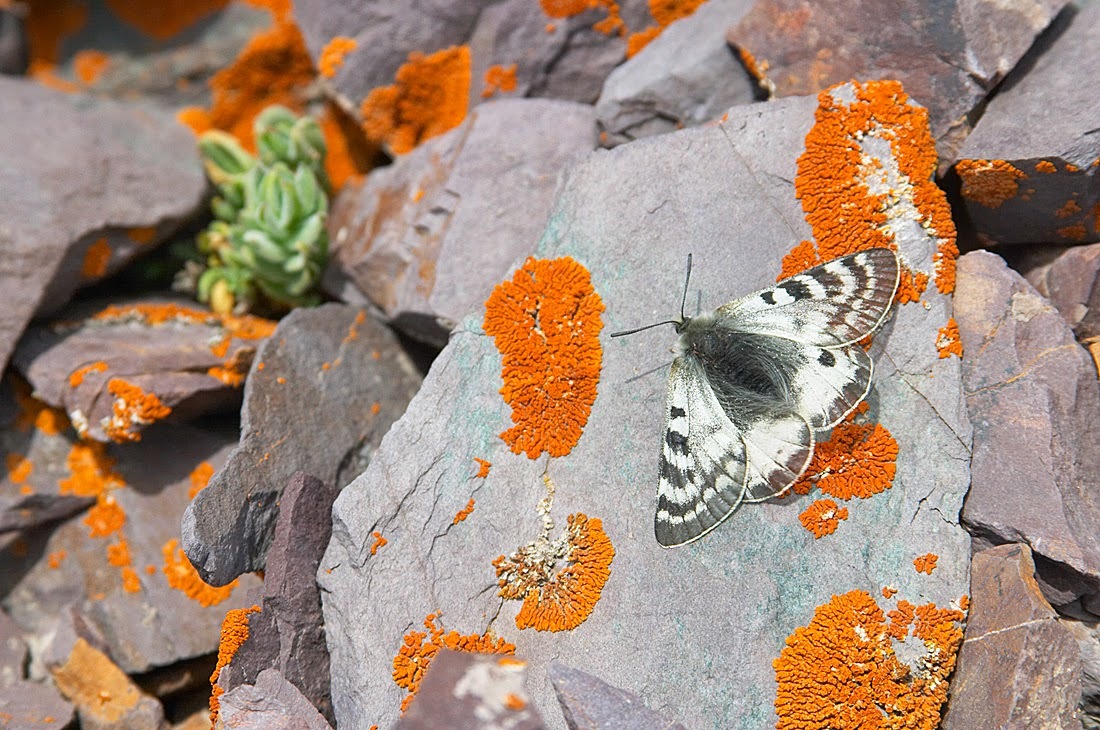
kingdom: Animalia
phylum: Arthropoda
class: Insecta
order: Lepidoptera
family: Papilionidae
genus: Parnassius
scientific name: Parnassius patricius
